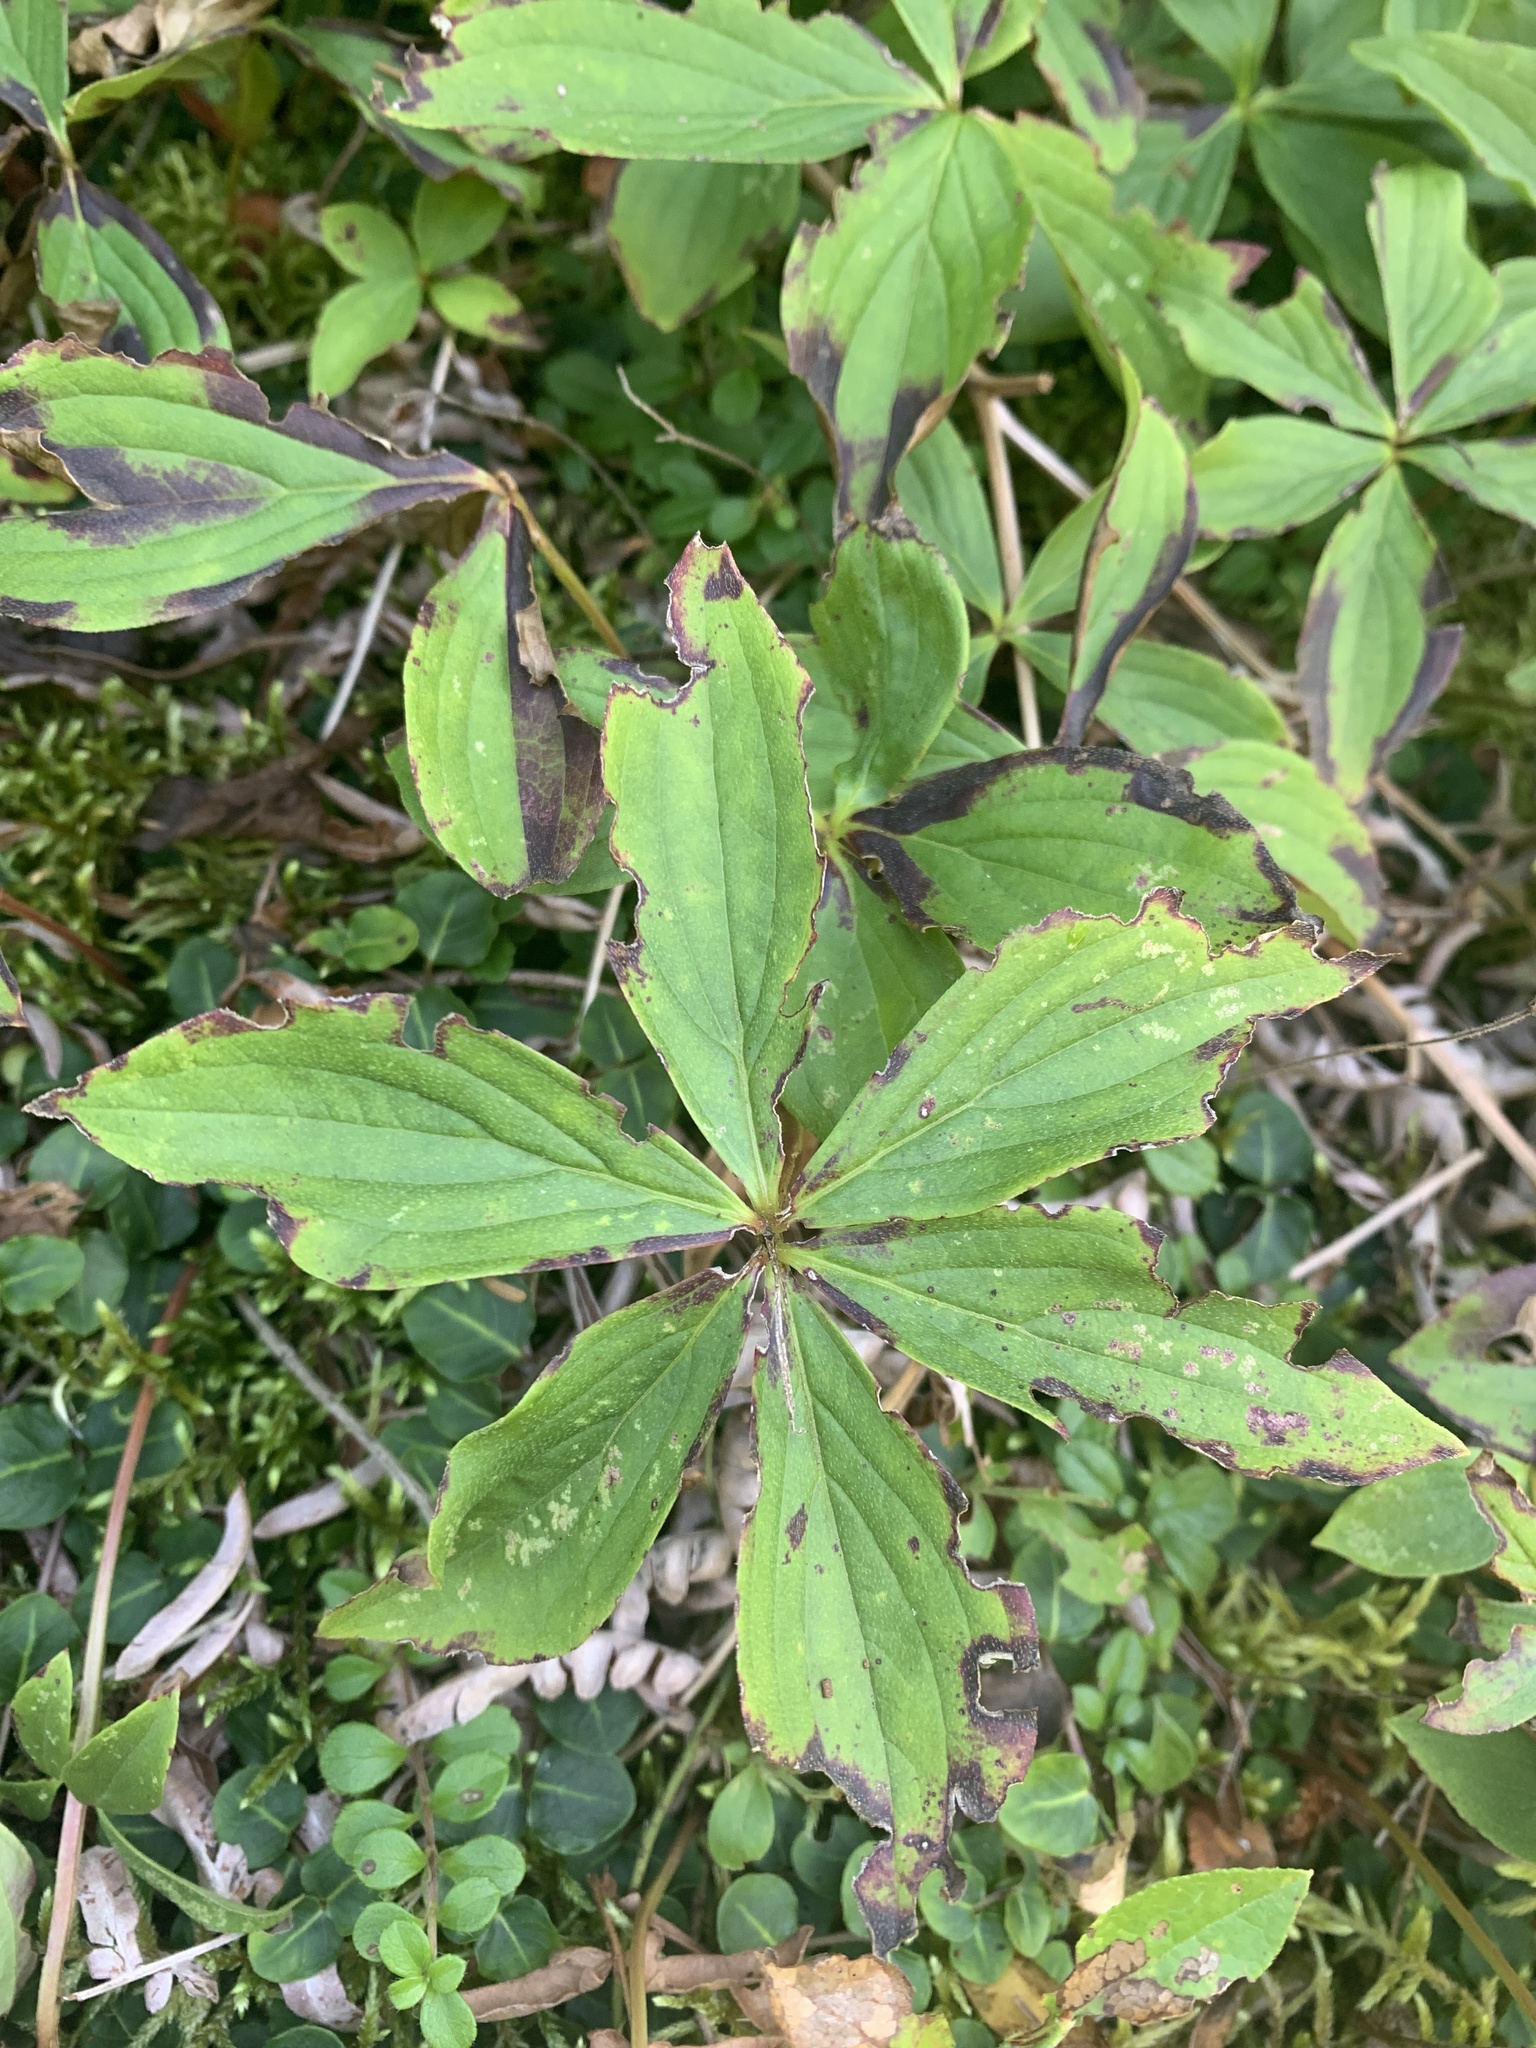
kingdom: Plantae
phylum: Tracheophyta
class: Magnoliopsida
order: Cornales
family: Cornaceae
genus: Cornus
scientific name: Cornus canadensis
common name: Creeping dogwood
